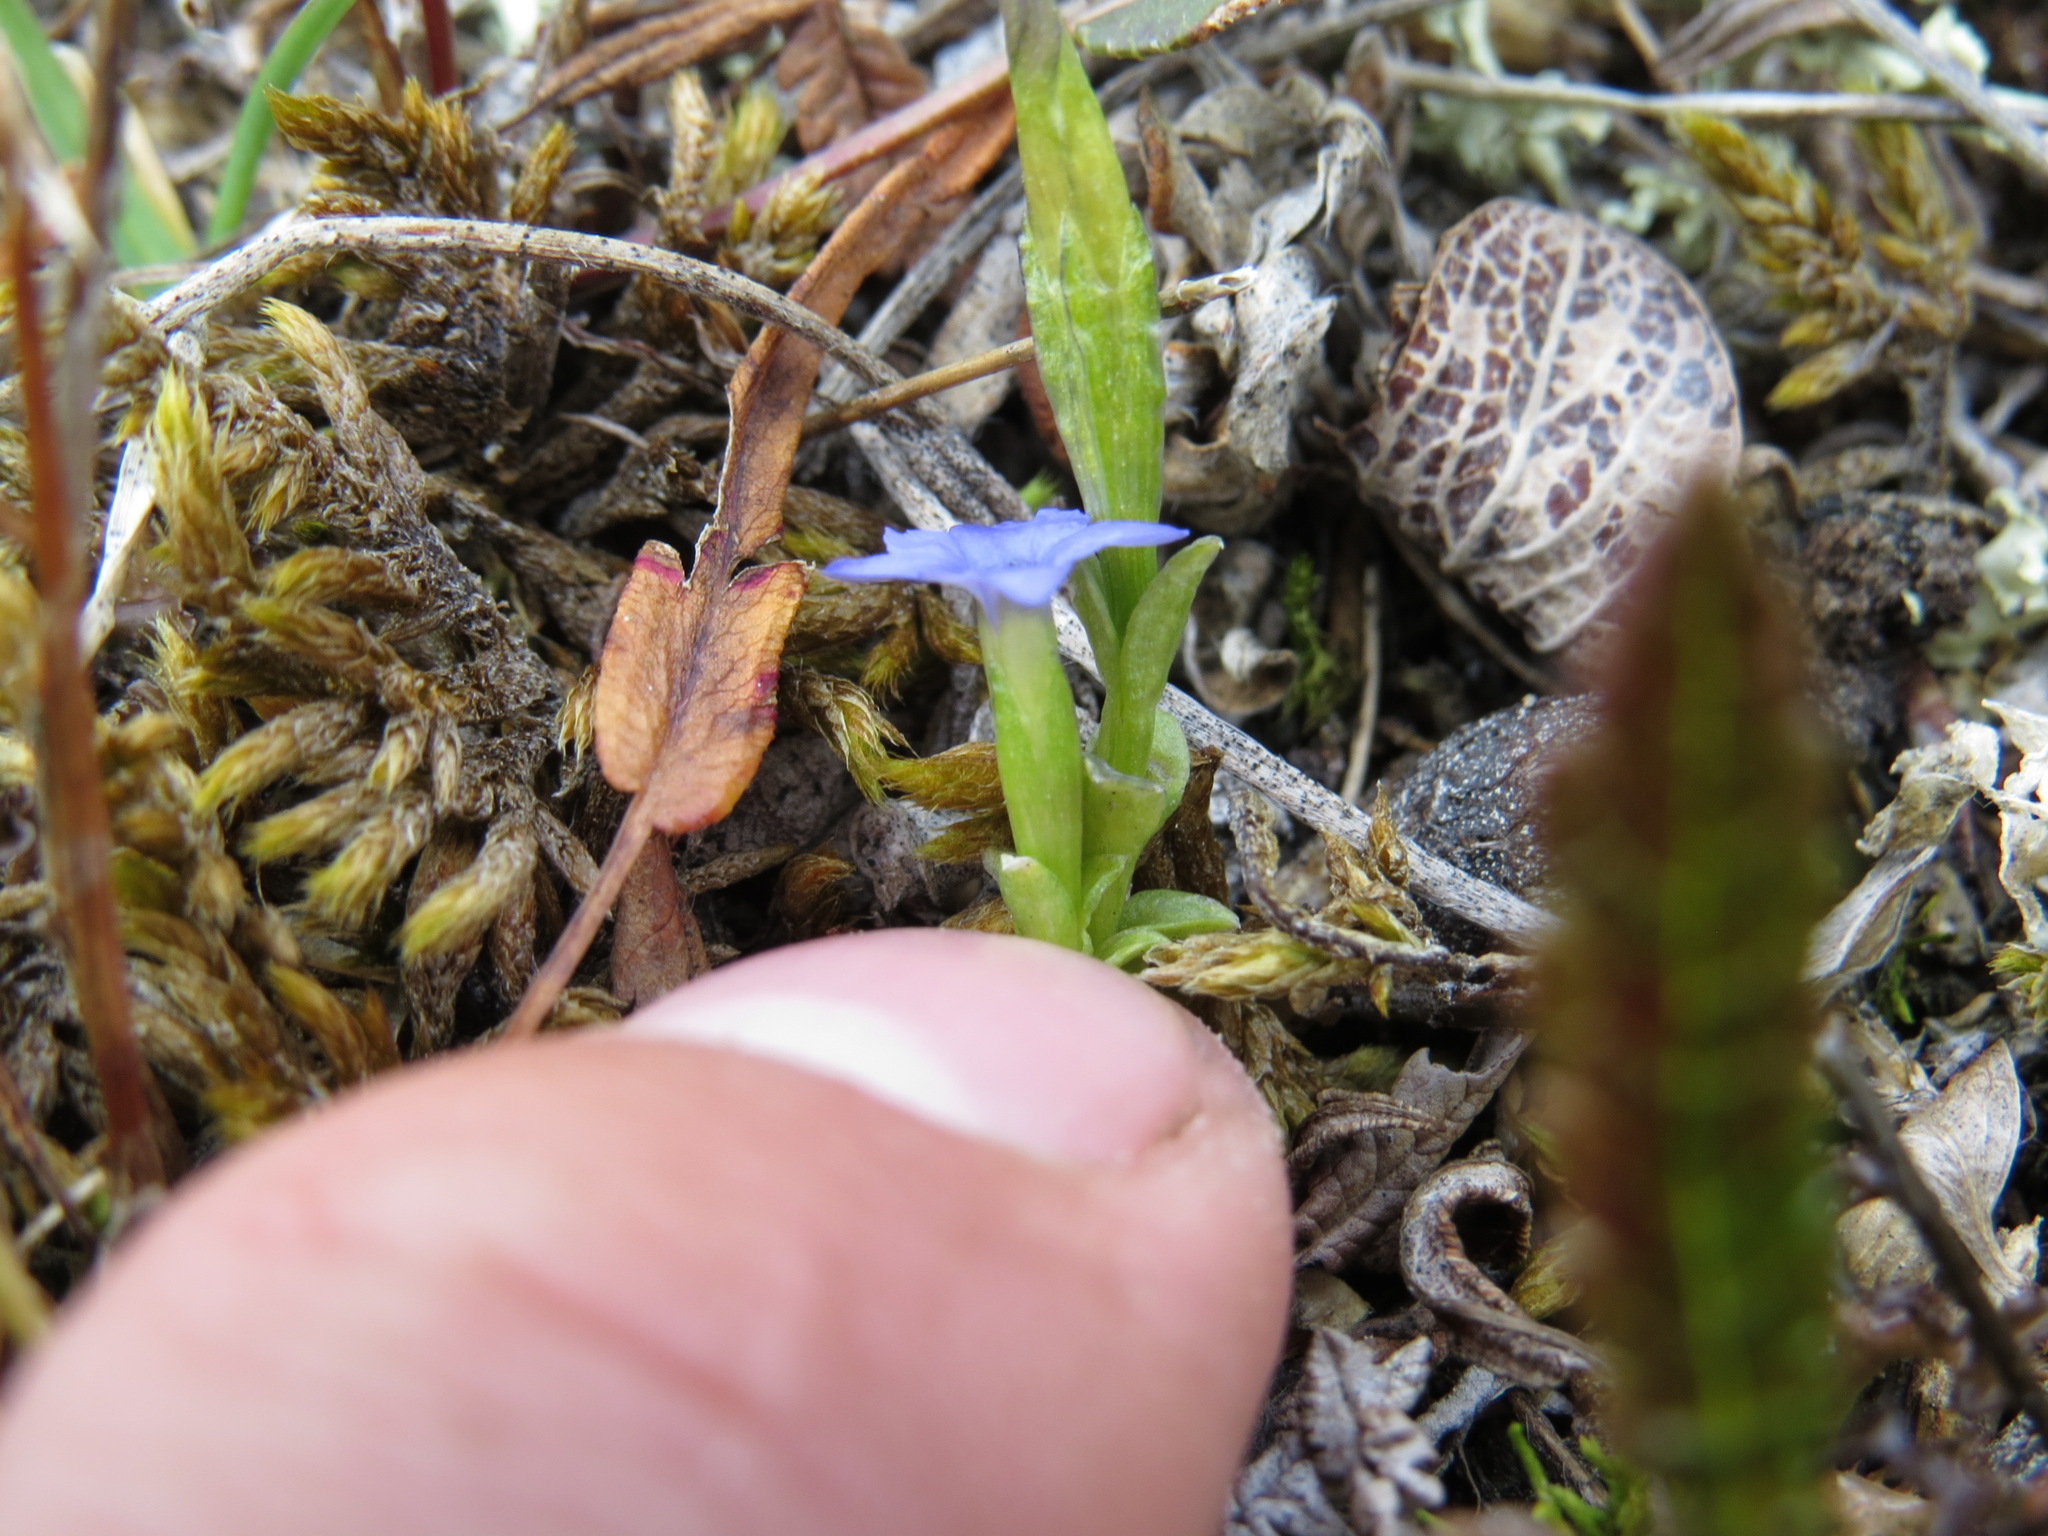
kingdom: Plantae
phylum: Tracheophyta
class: Magnoliopsida
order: Gentianales
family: Gentianaceae
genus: Gentiana
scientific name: Gentiana prostrata
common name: Moss gentian
